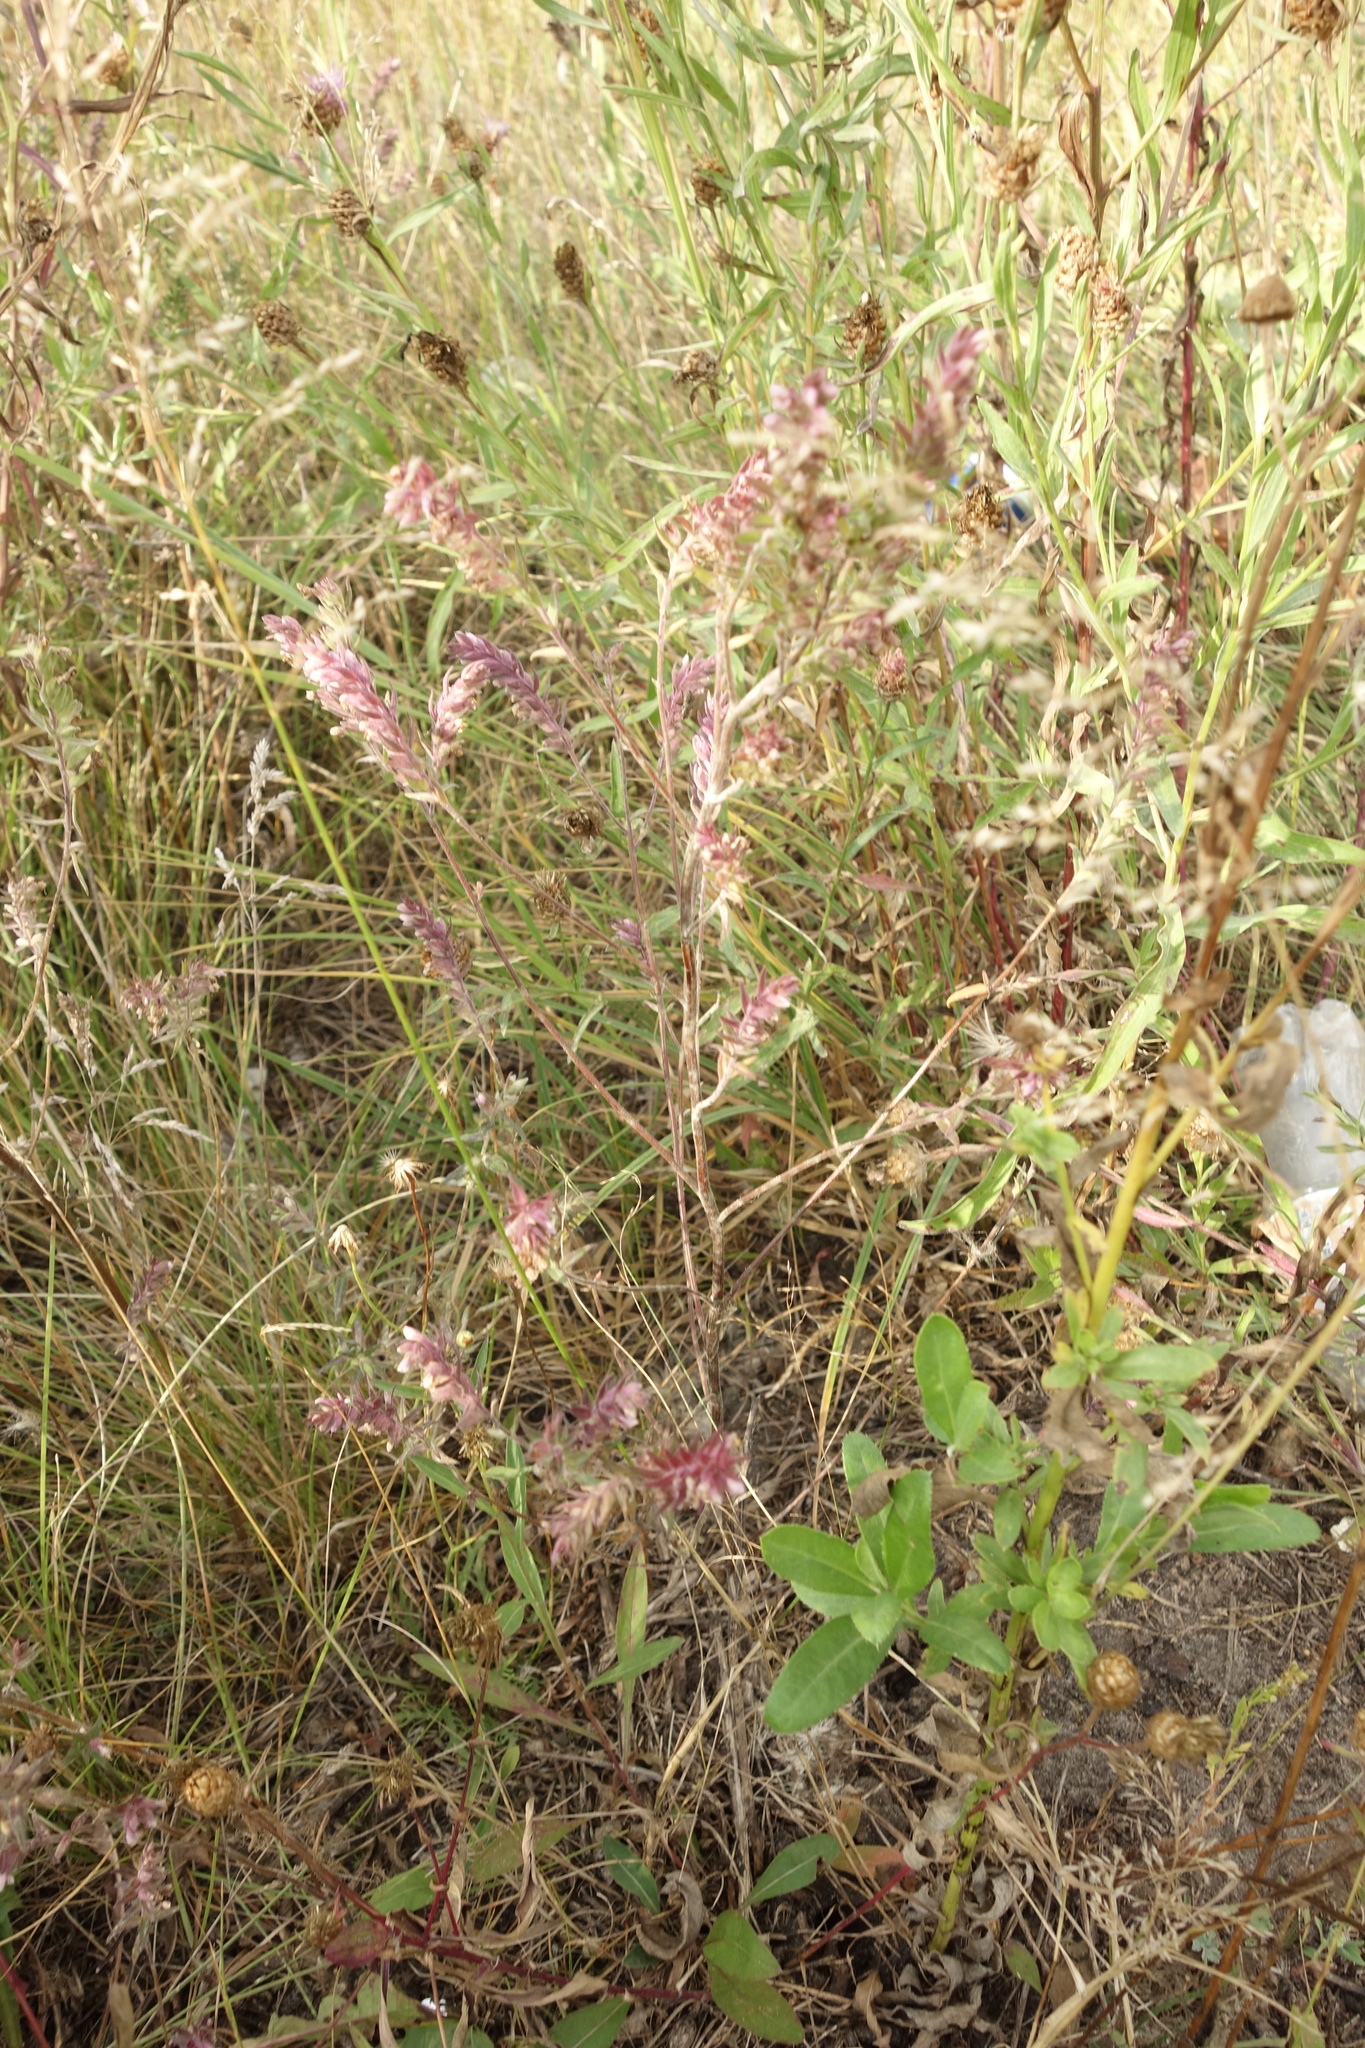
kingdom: Plantae
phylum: Tracheophyta
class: Magnoliopsida
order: Lamiales
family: Orobanchaceae
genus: Odontites
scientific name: Odontites vulgaris
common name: Broomrape
